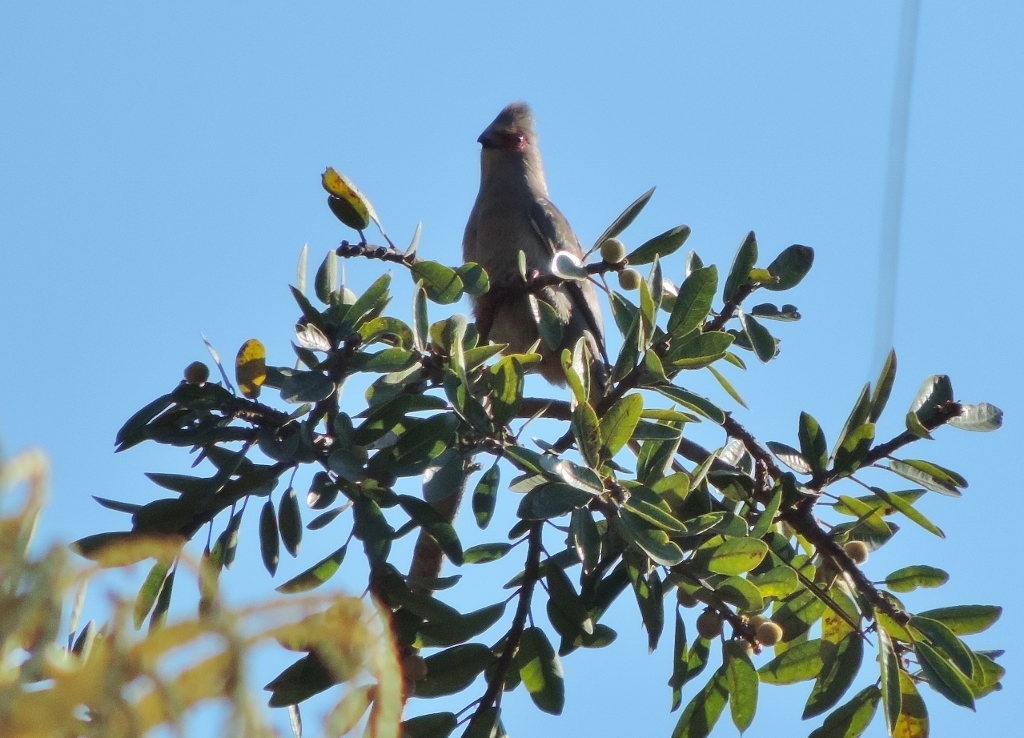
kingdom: Animalia
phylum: Chordata
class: Aves
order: Coliiformes
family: Coliidae
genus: Urocolius
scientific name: Urocolius indicus
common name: Red-faced mousebird
